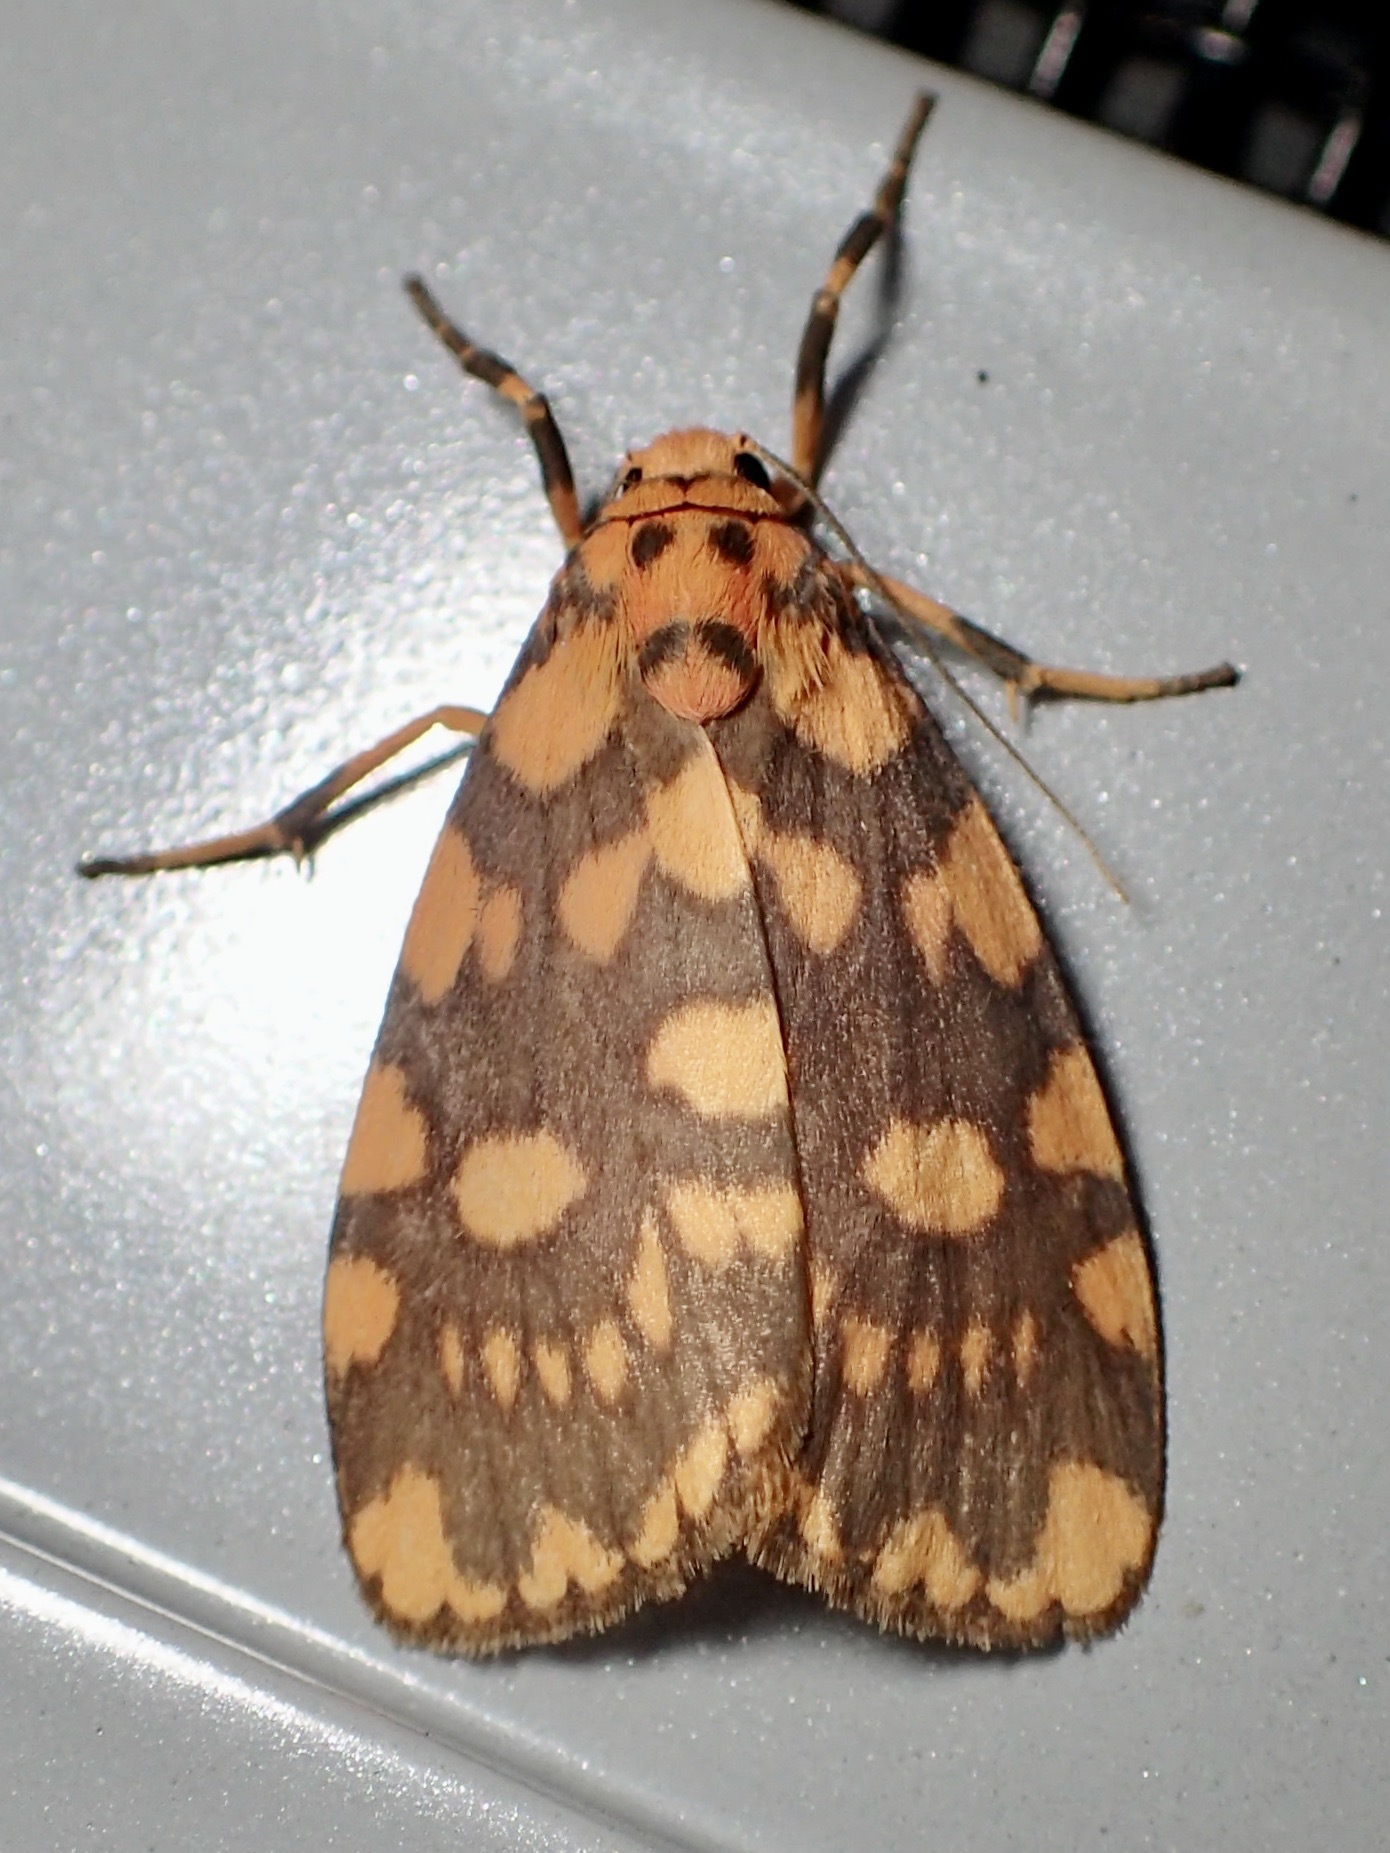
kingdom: Animalia
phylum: Arthropoda
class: Insecta
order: Lepidoptera
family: Erebidae
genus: Cyme
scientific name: Cyme quadrilineata
